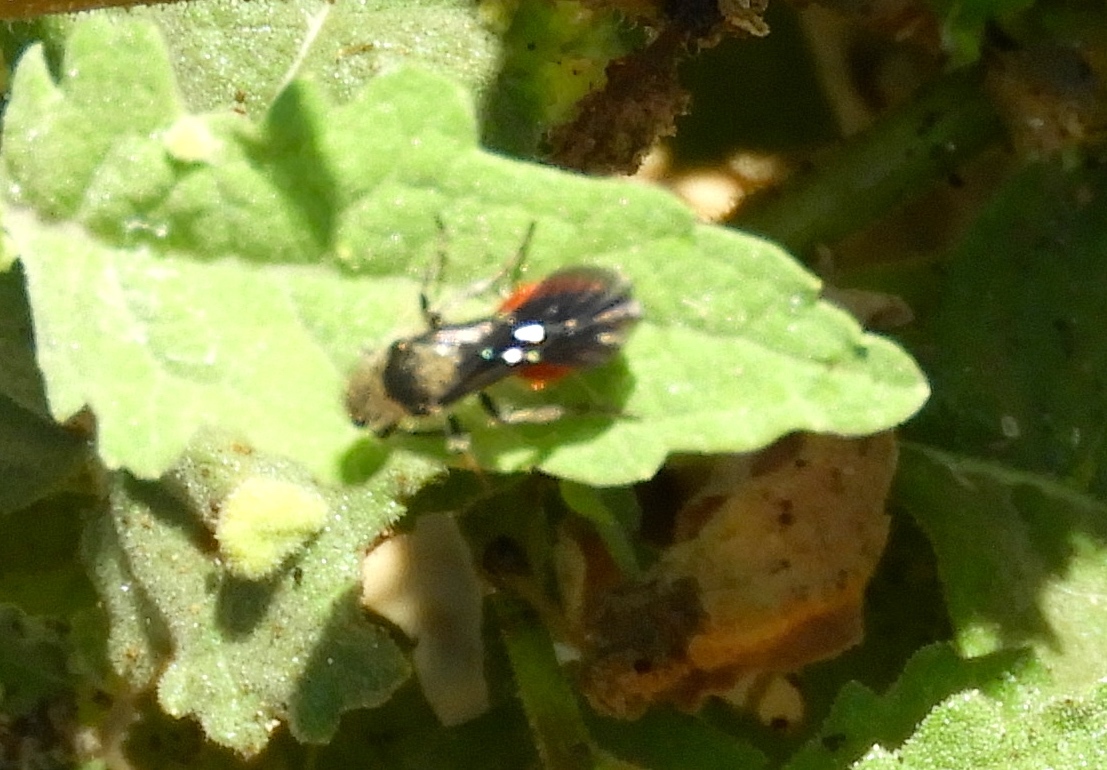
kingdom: Animalia
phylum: Arthropoda
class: Insecta
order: Hymenoptera
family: Mutillidae
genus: Dasymutilla
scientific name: Dasymutilla
